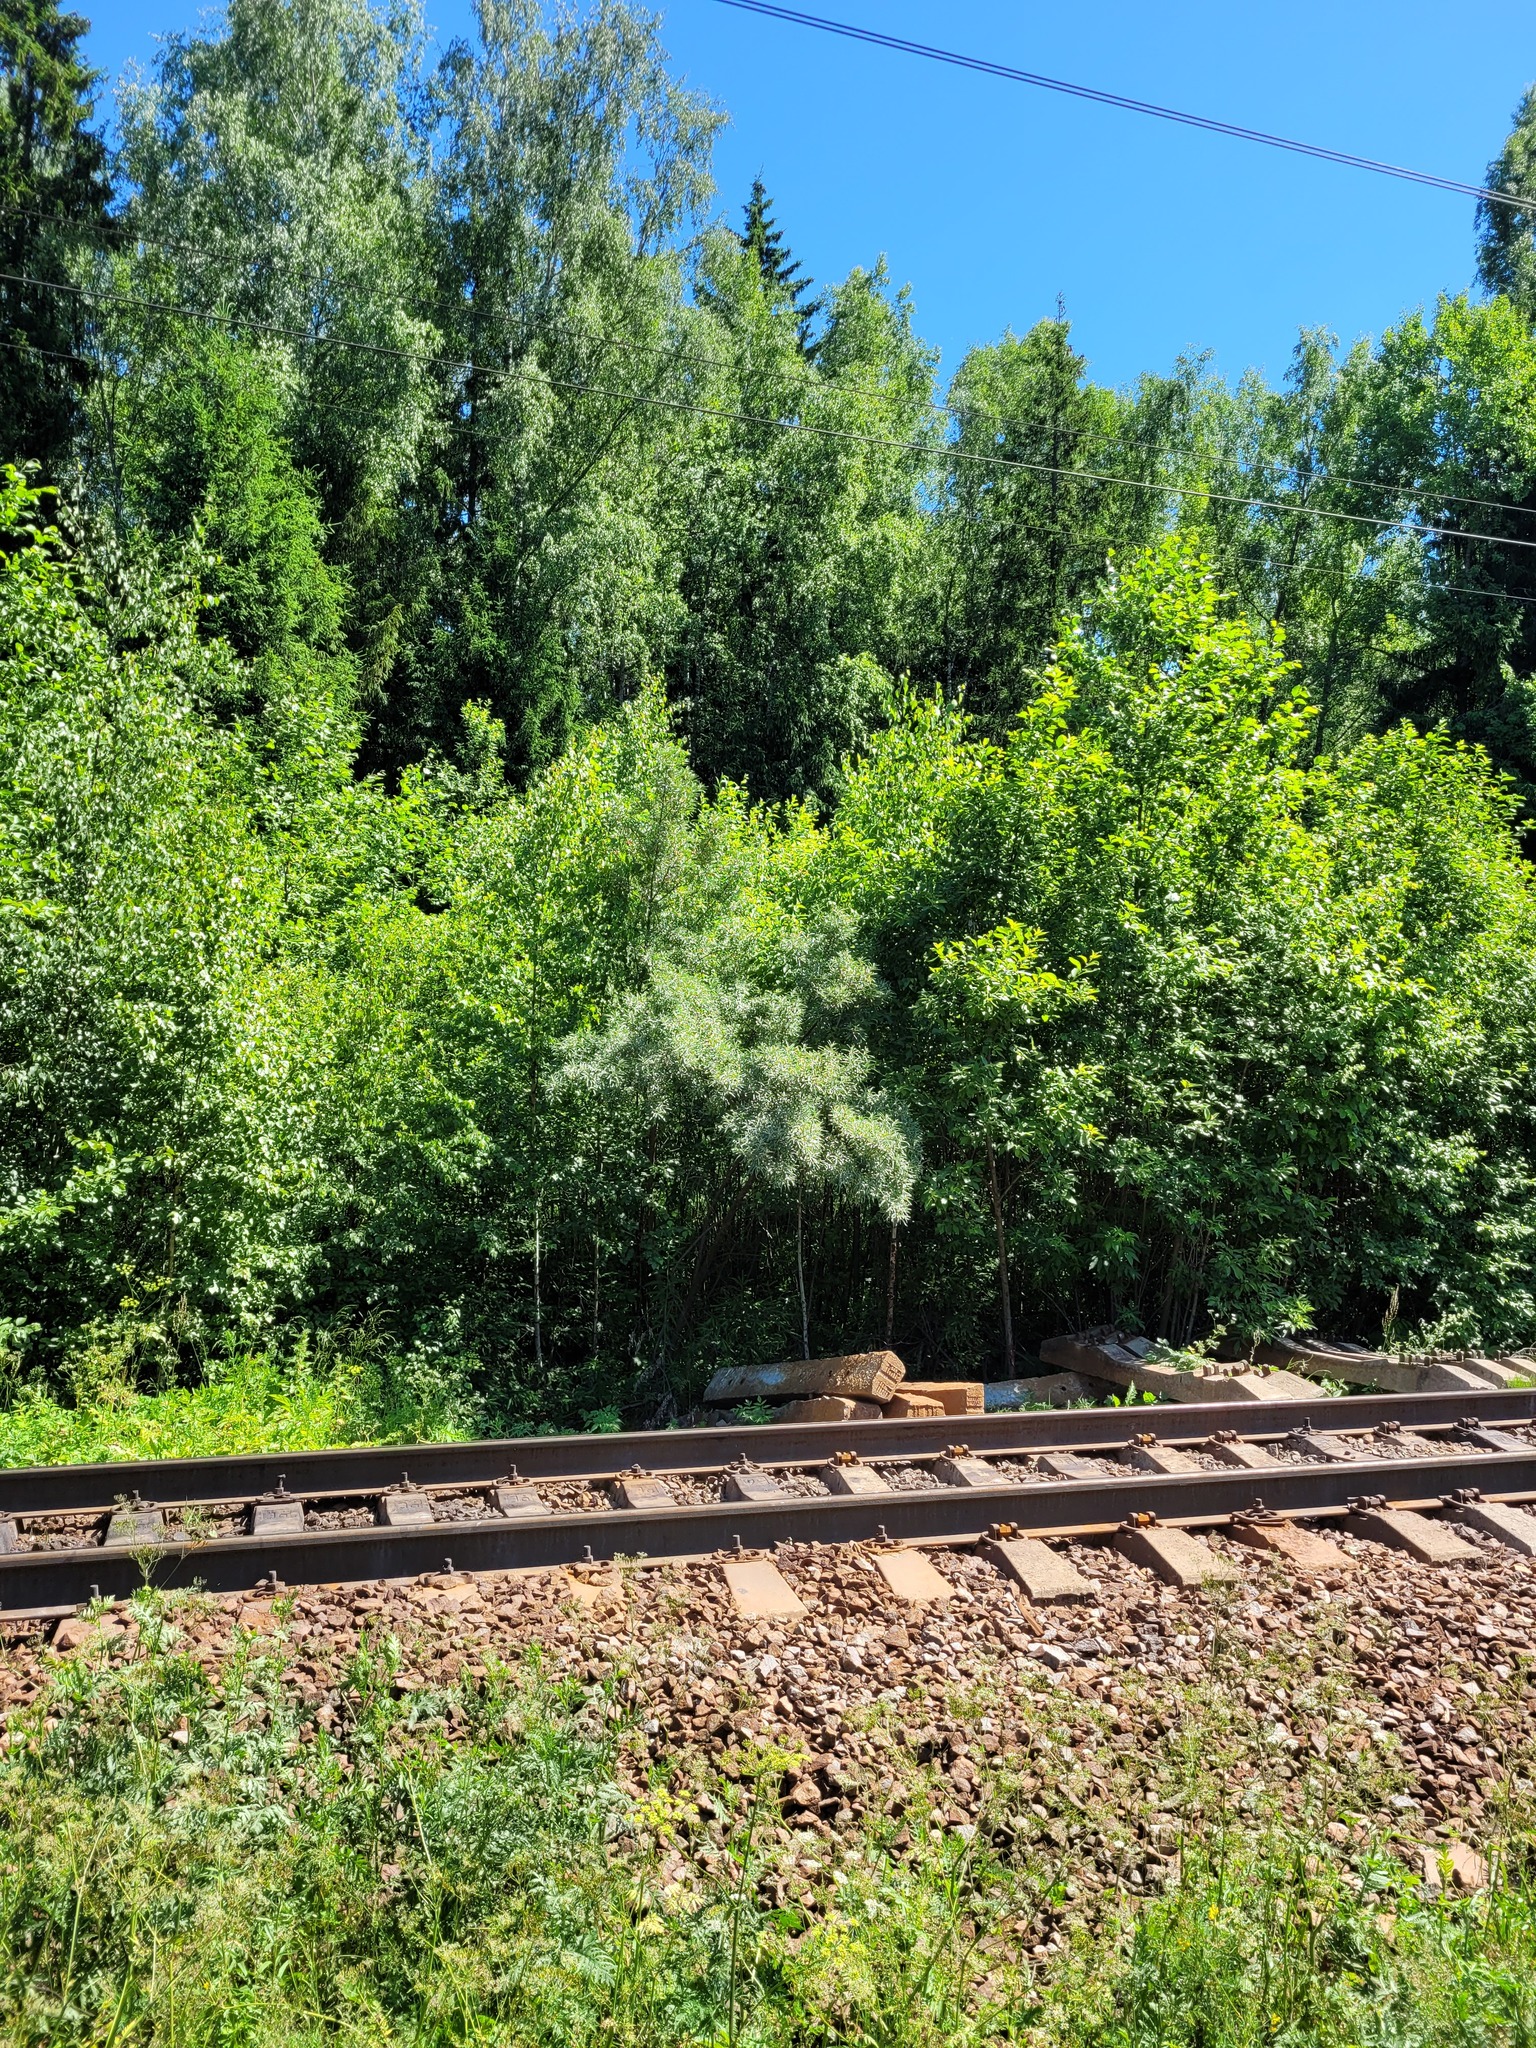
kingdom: Plantae
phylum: Tracheophyta
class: Magnoliopsida
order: Rosales
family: Elaeagnaceae
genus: Hippophae
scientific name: Hippophae rhamnoides
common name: Sea-buckthorn
